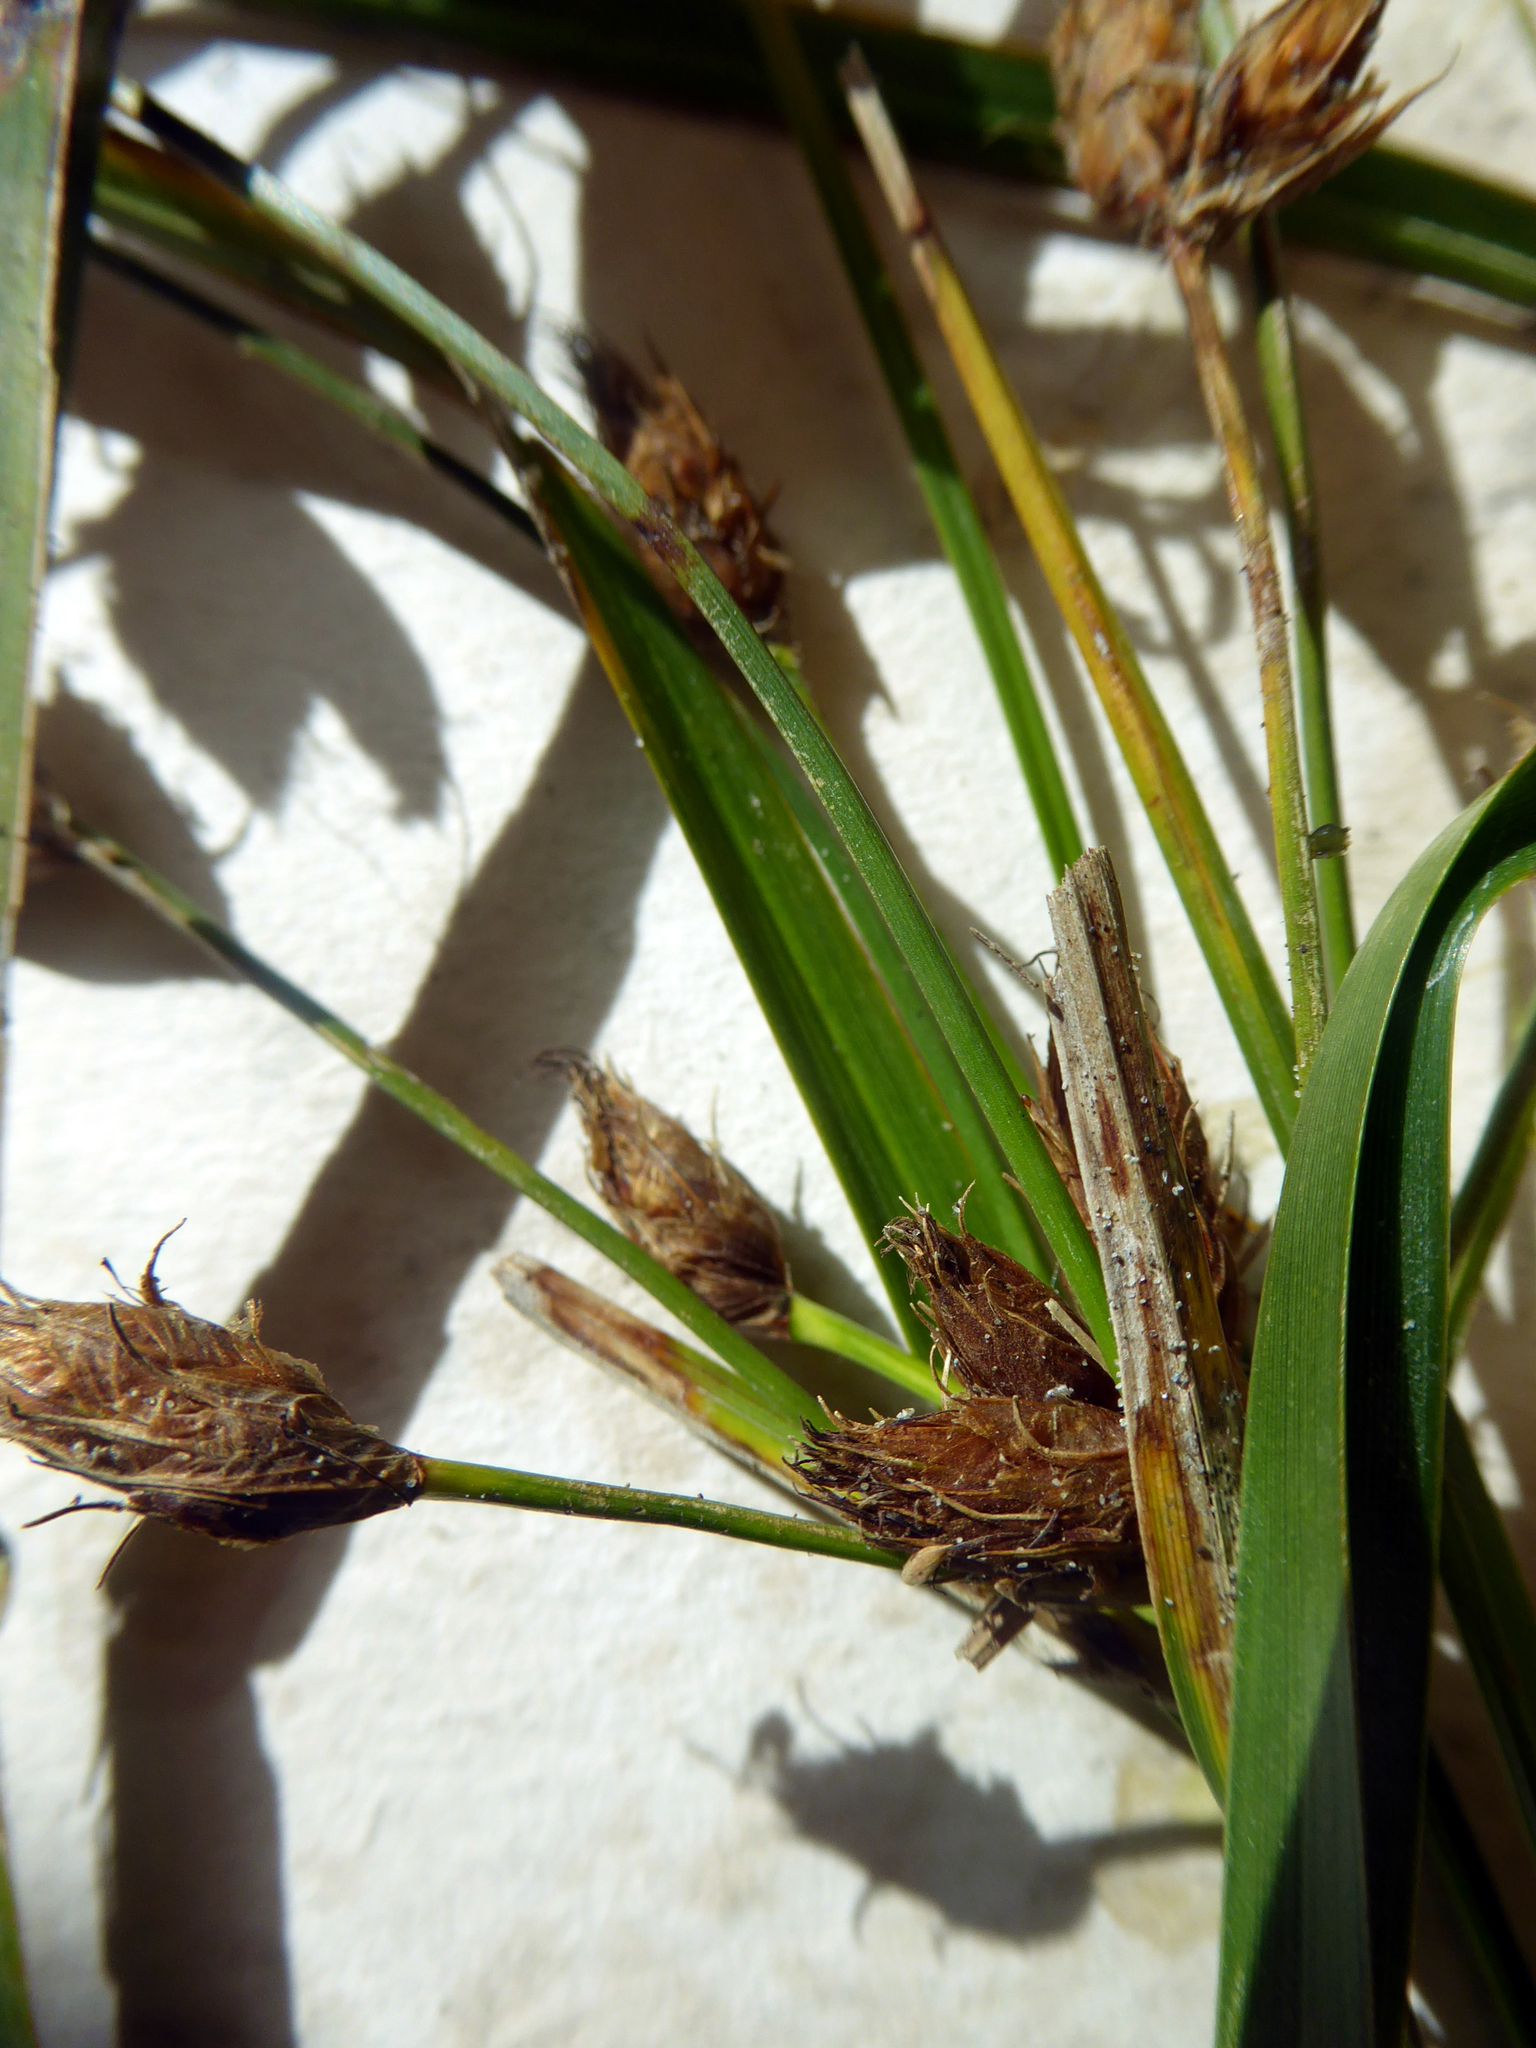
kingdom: Plantae
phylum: Tracheophyta
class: Liliopsida
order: Poales
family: Cyperaceae
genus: Bolboschoenus
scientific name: Bolboschoenus fluviatilis
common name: River bulrush
